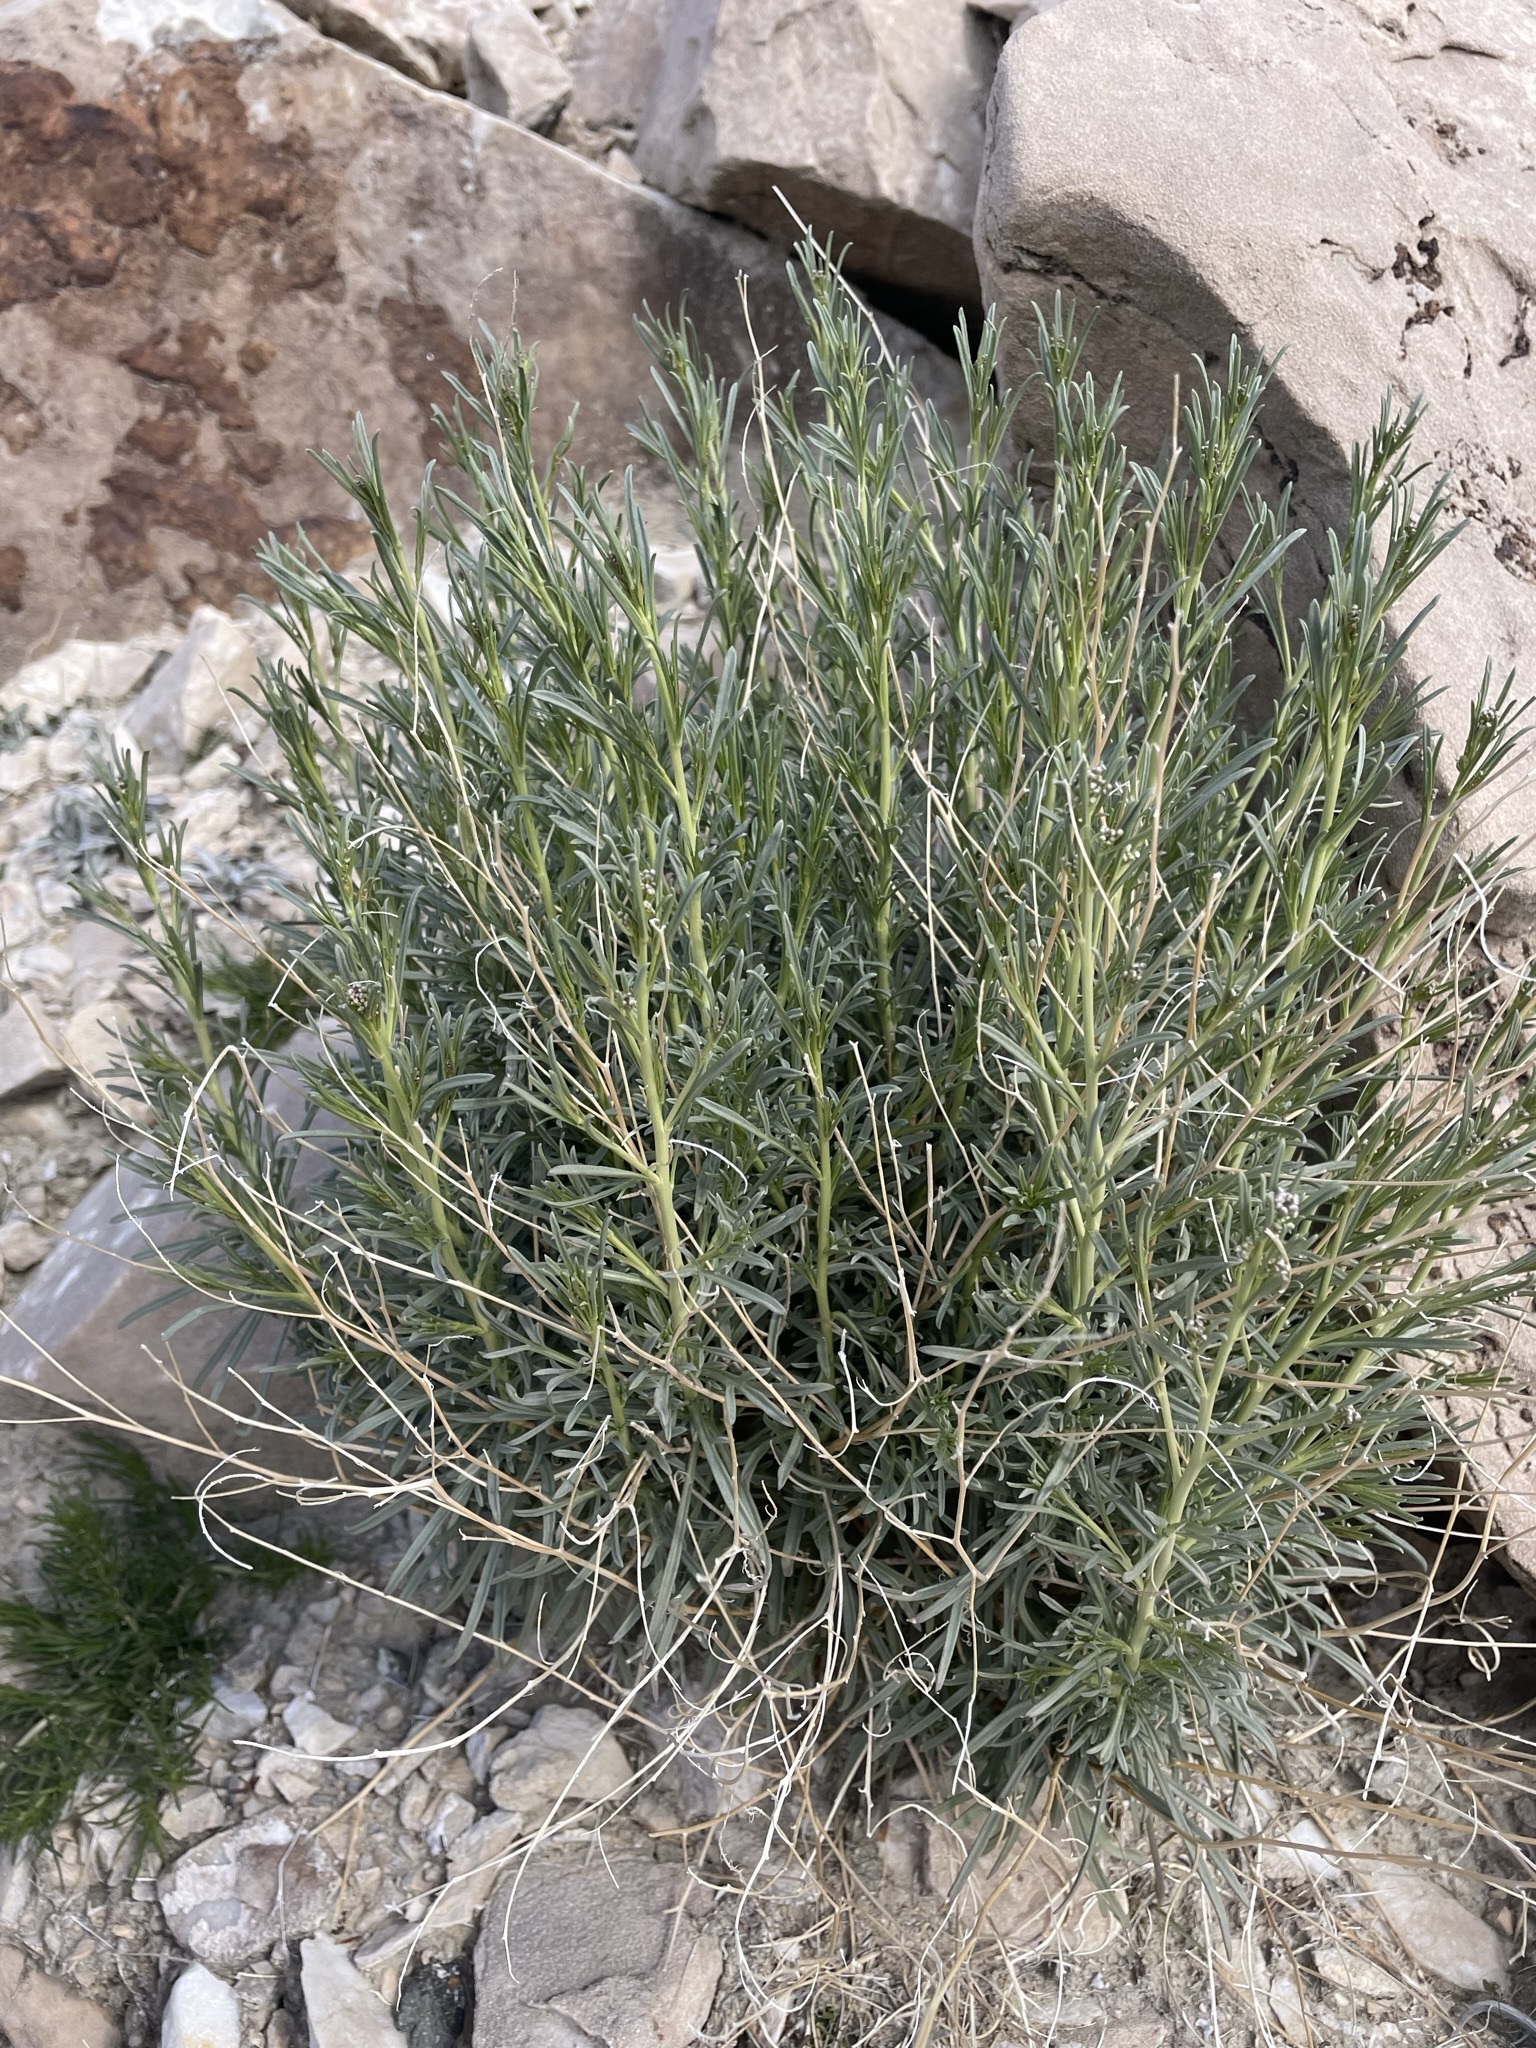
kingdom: Plantae
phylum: Tracheophyta
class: Magnoliopsida
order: Brassicales
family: Brassicaceae
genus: Lepidium
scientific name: Lepidium fremontii
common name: Fremont's pepperwort
